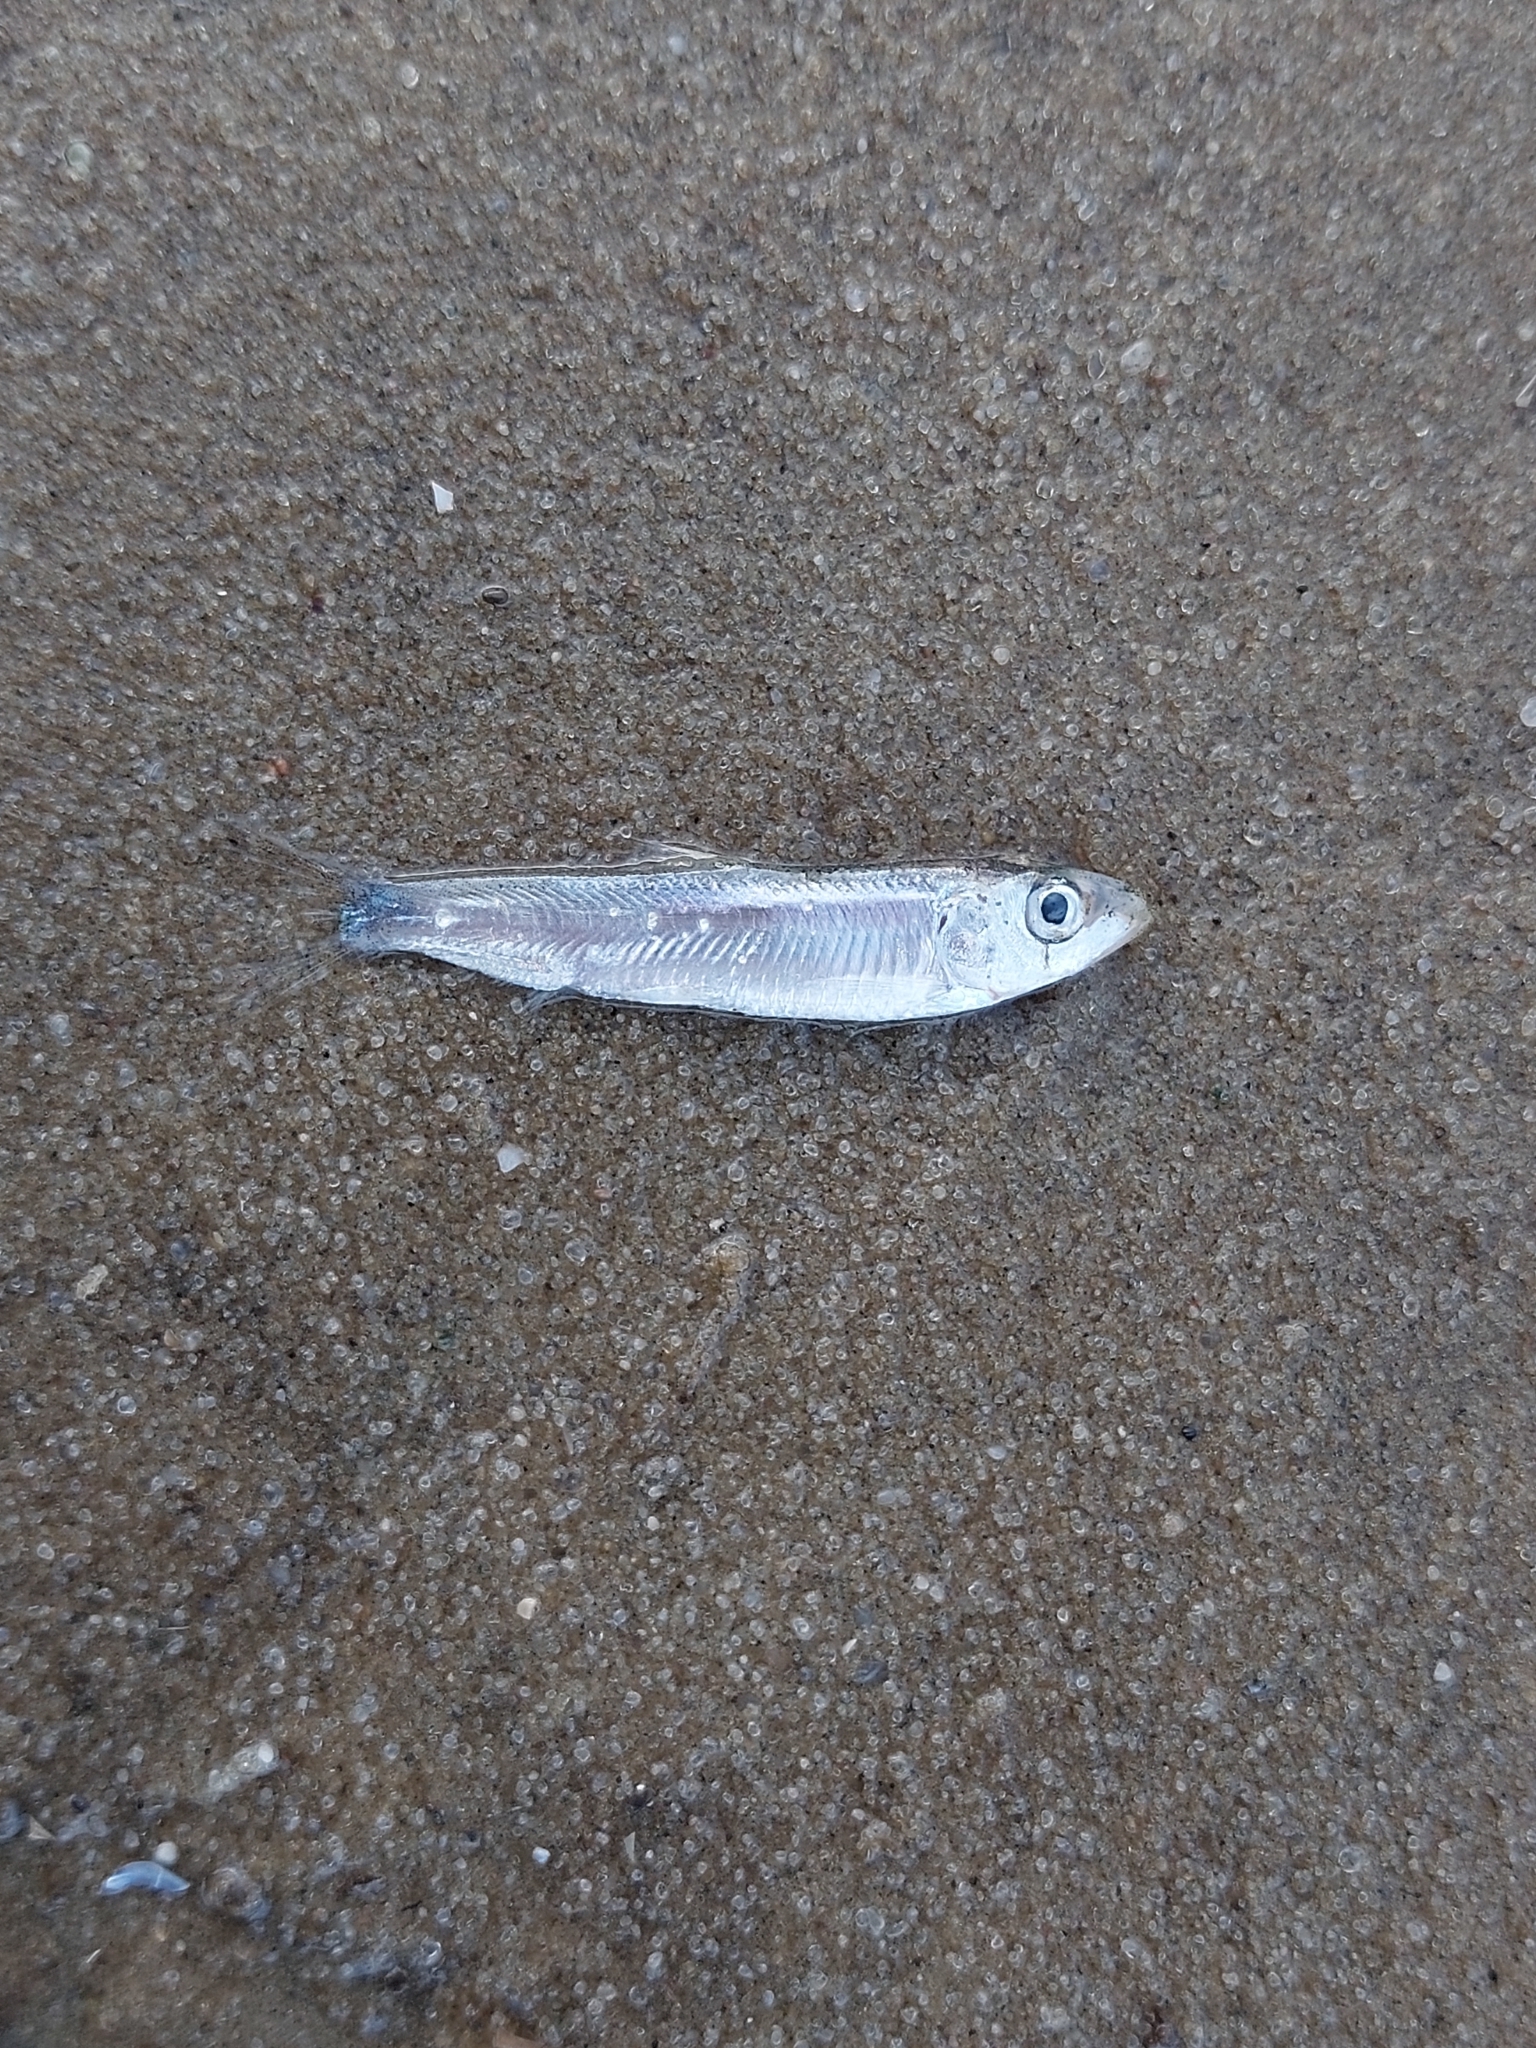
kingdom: Animalia
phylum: Chordata
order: Clupeiformes
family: Clupeidae
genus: Clupeonella
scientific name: Clupeonella cultriventris
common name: Azov sea sprat
